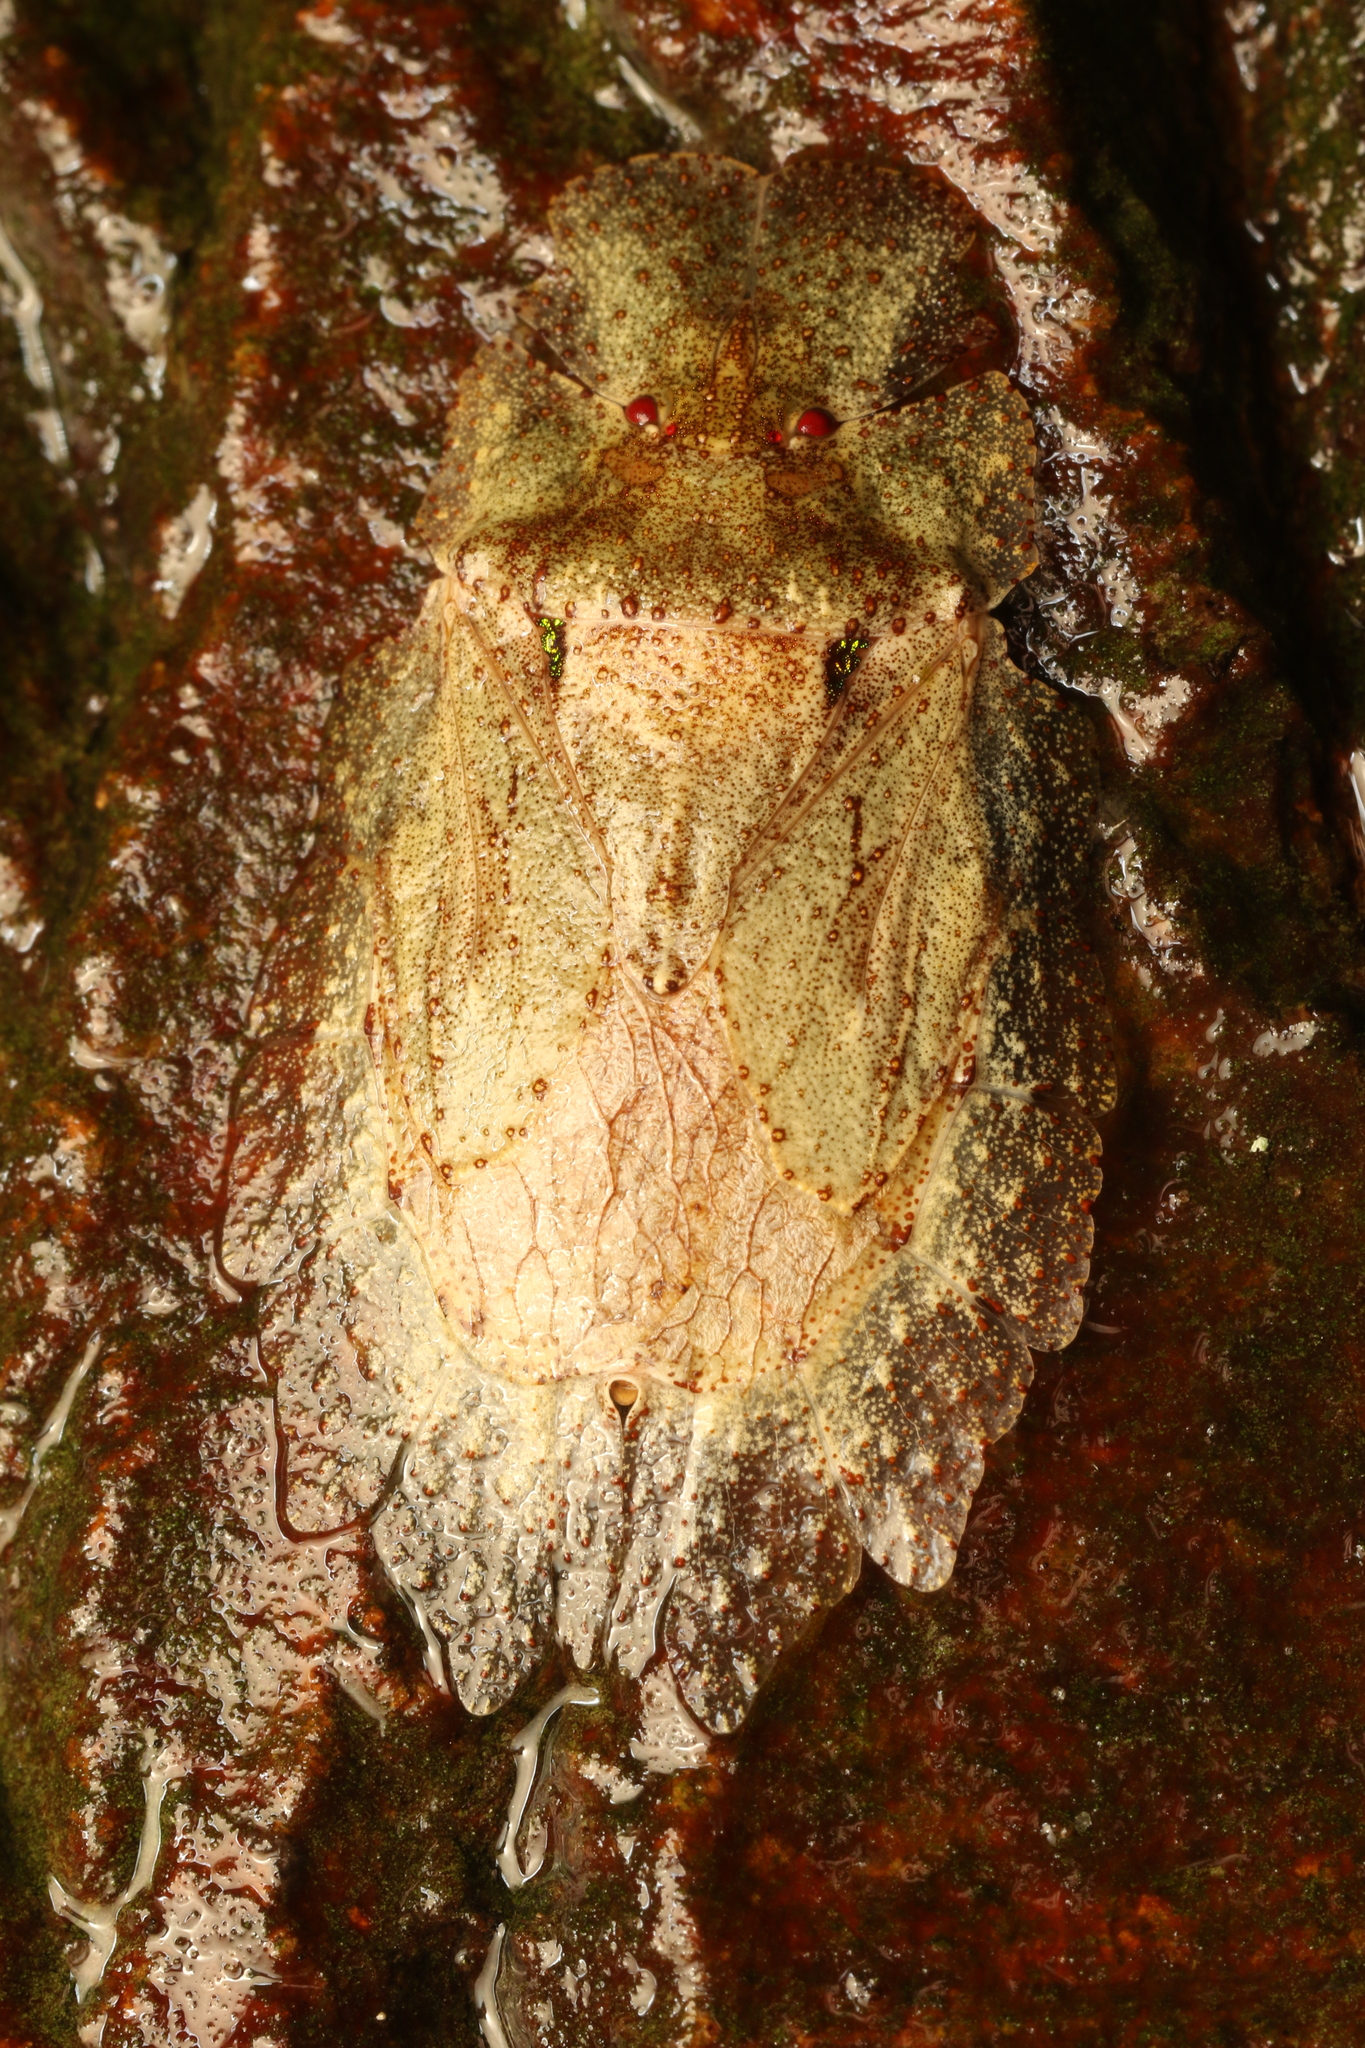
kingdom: Animalia
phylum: Arthropoda
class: Insecta
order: Hemiptera
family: Phleides
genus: Phloea
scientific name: Phloea
